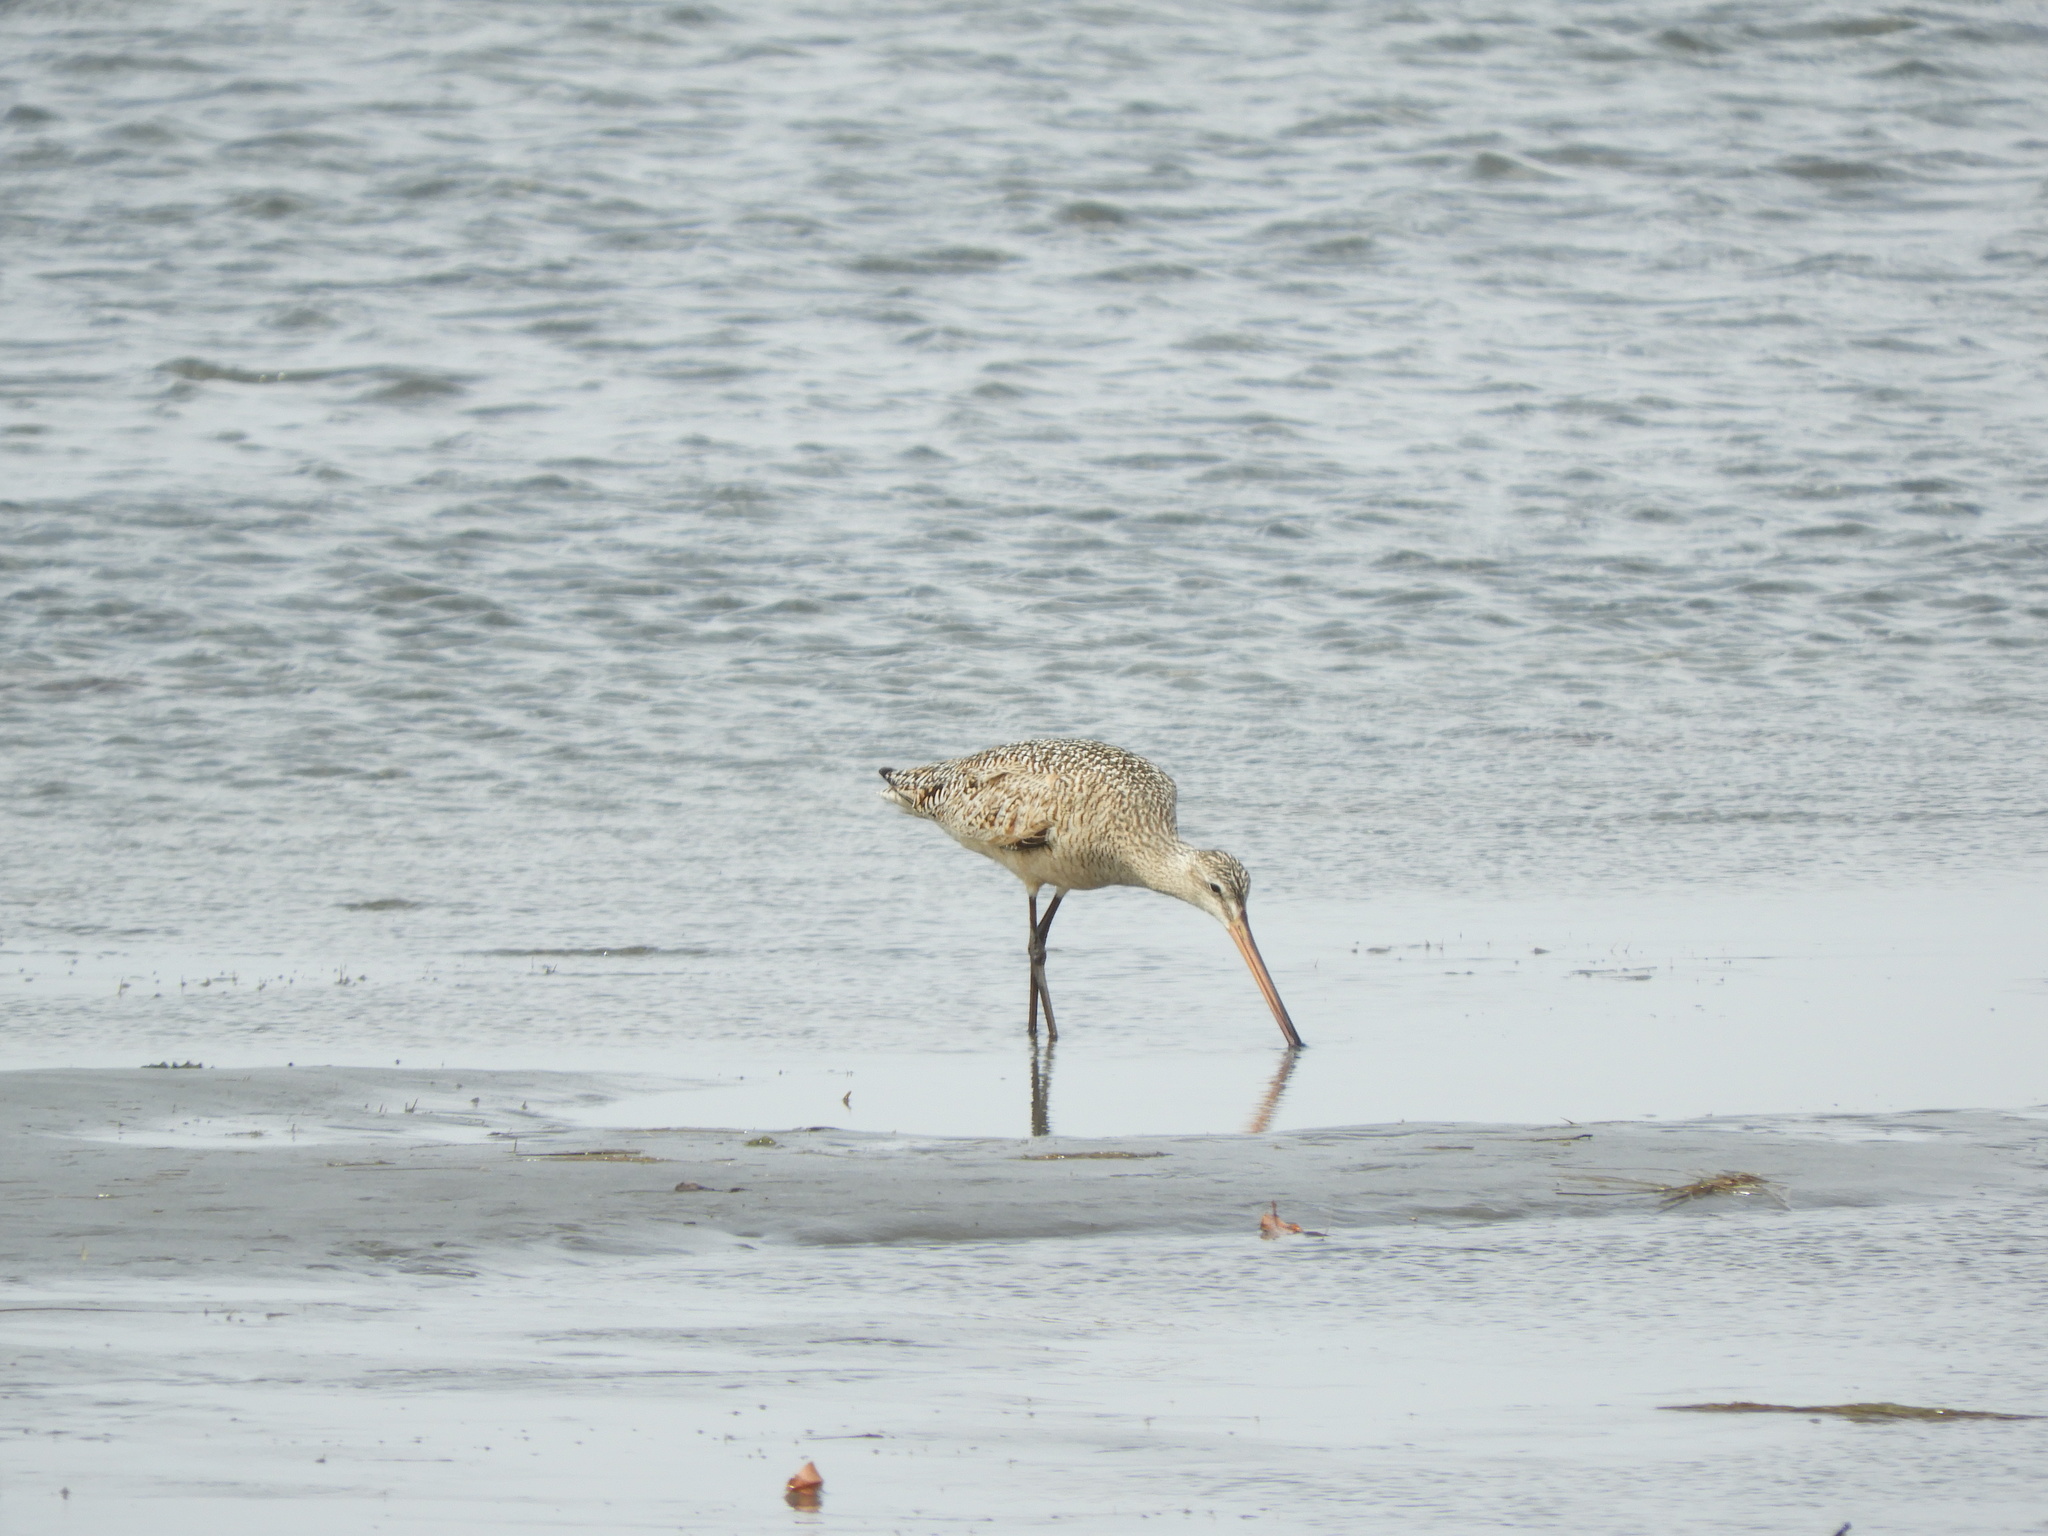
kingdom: Animalia
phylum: Chordata
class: Aves
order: Charadriiformes
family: Scolopacidae
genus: Limosa
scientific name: Limosa fedoa
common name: Marbled godwit
